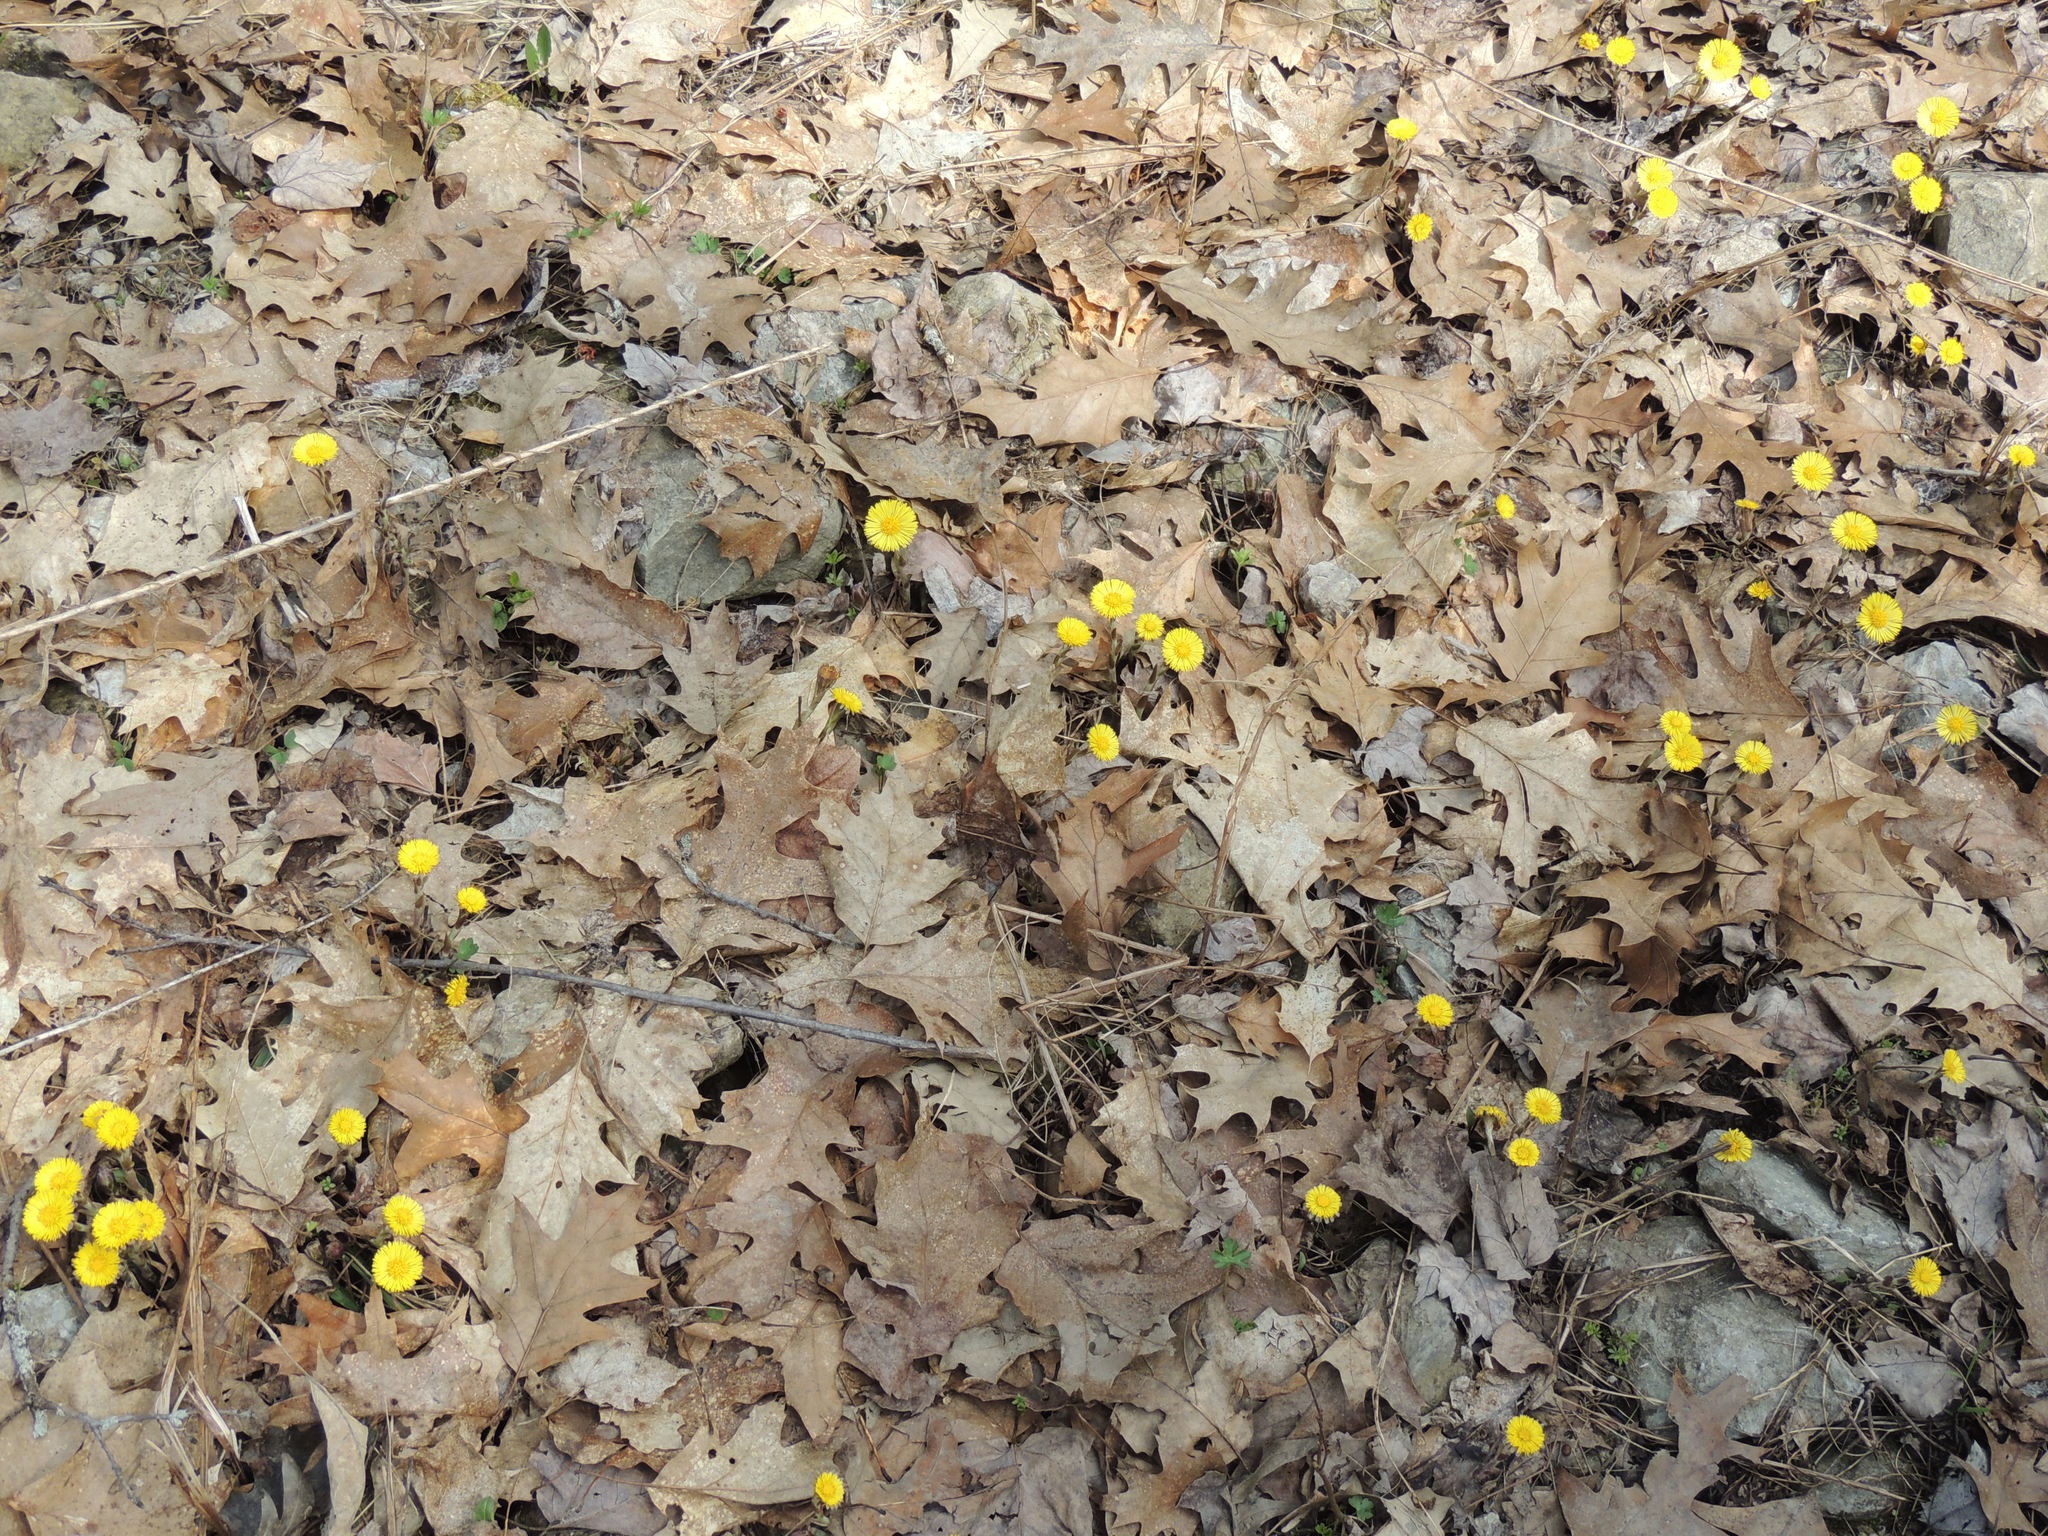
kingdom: Plantae
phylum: Tracheophyta
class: Magnoliopsida
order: Asterales
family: Asteraceae
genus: Tussilago
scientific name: Tussilago farfara
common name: Coltsfoot
